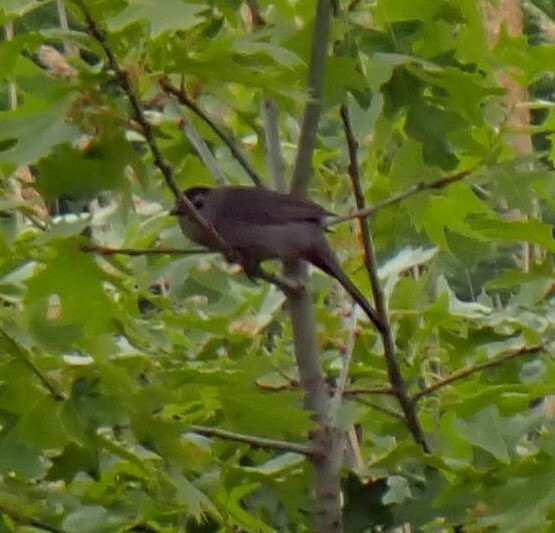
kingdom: Animalia
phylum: Chordata
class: Aves
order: Passeriformes
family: Mimidae
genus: Dumetella
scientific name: Dumetella carolinensis
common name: Gray catbird
